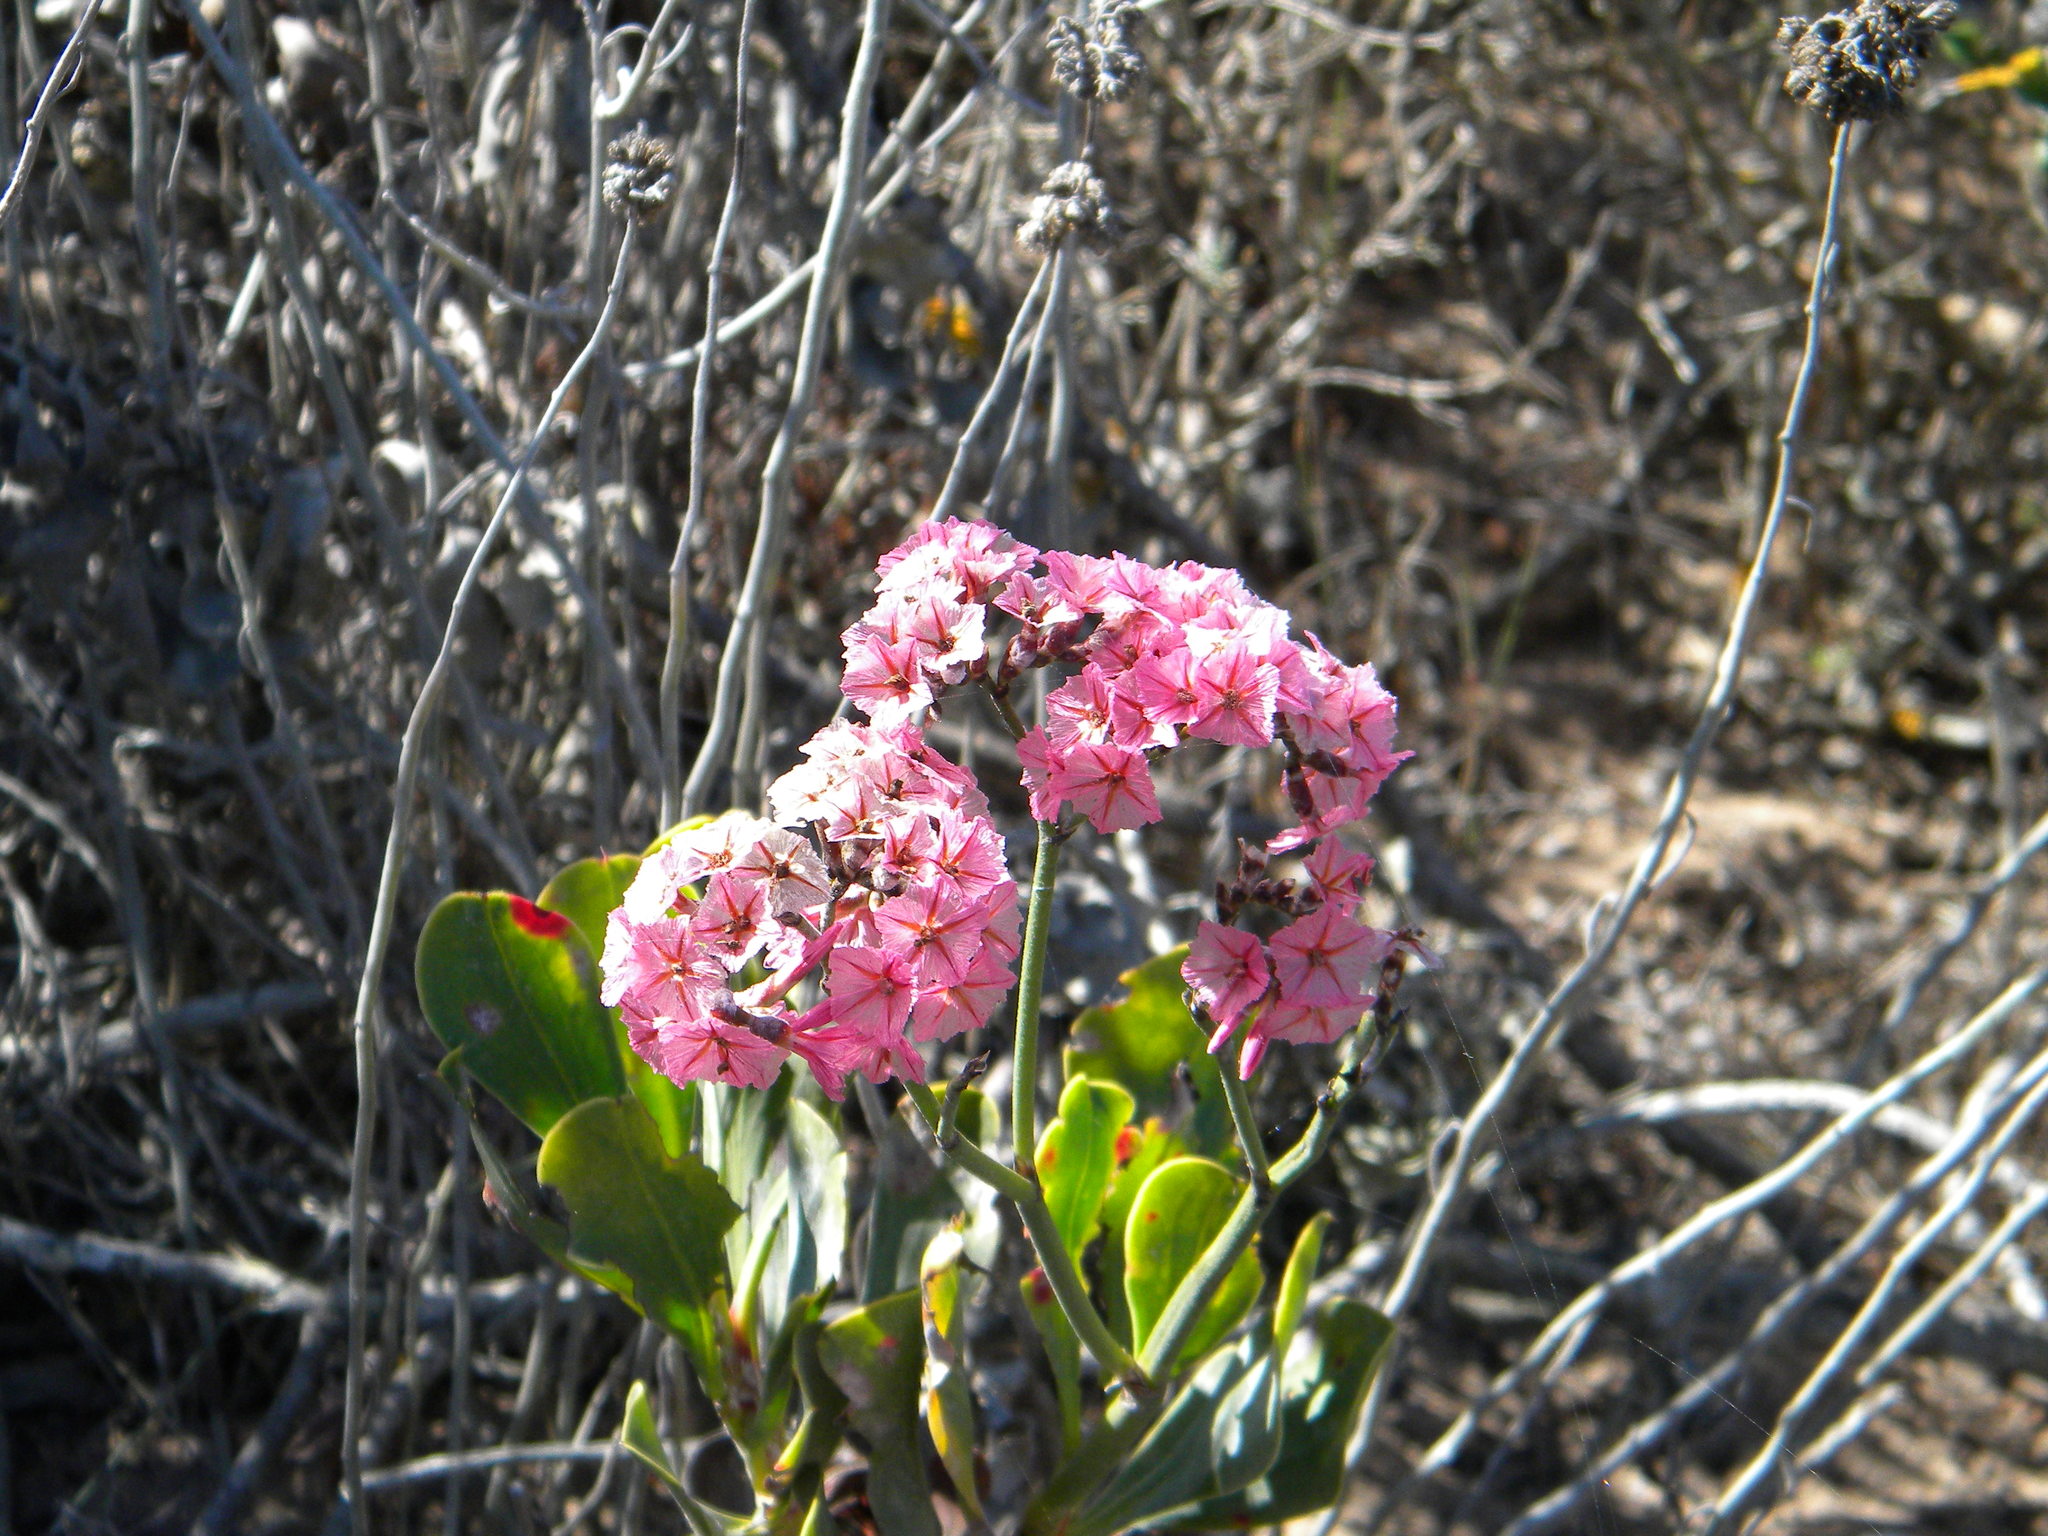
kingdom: Plantae
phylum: Tracheophyta
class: Magnoliopsida
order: Caryophyllales
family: Plumbaginaceae
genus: Limonium
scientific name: Limonium peregrinum
